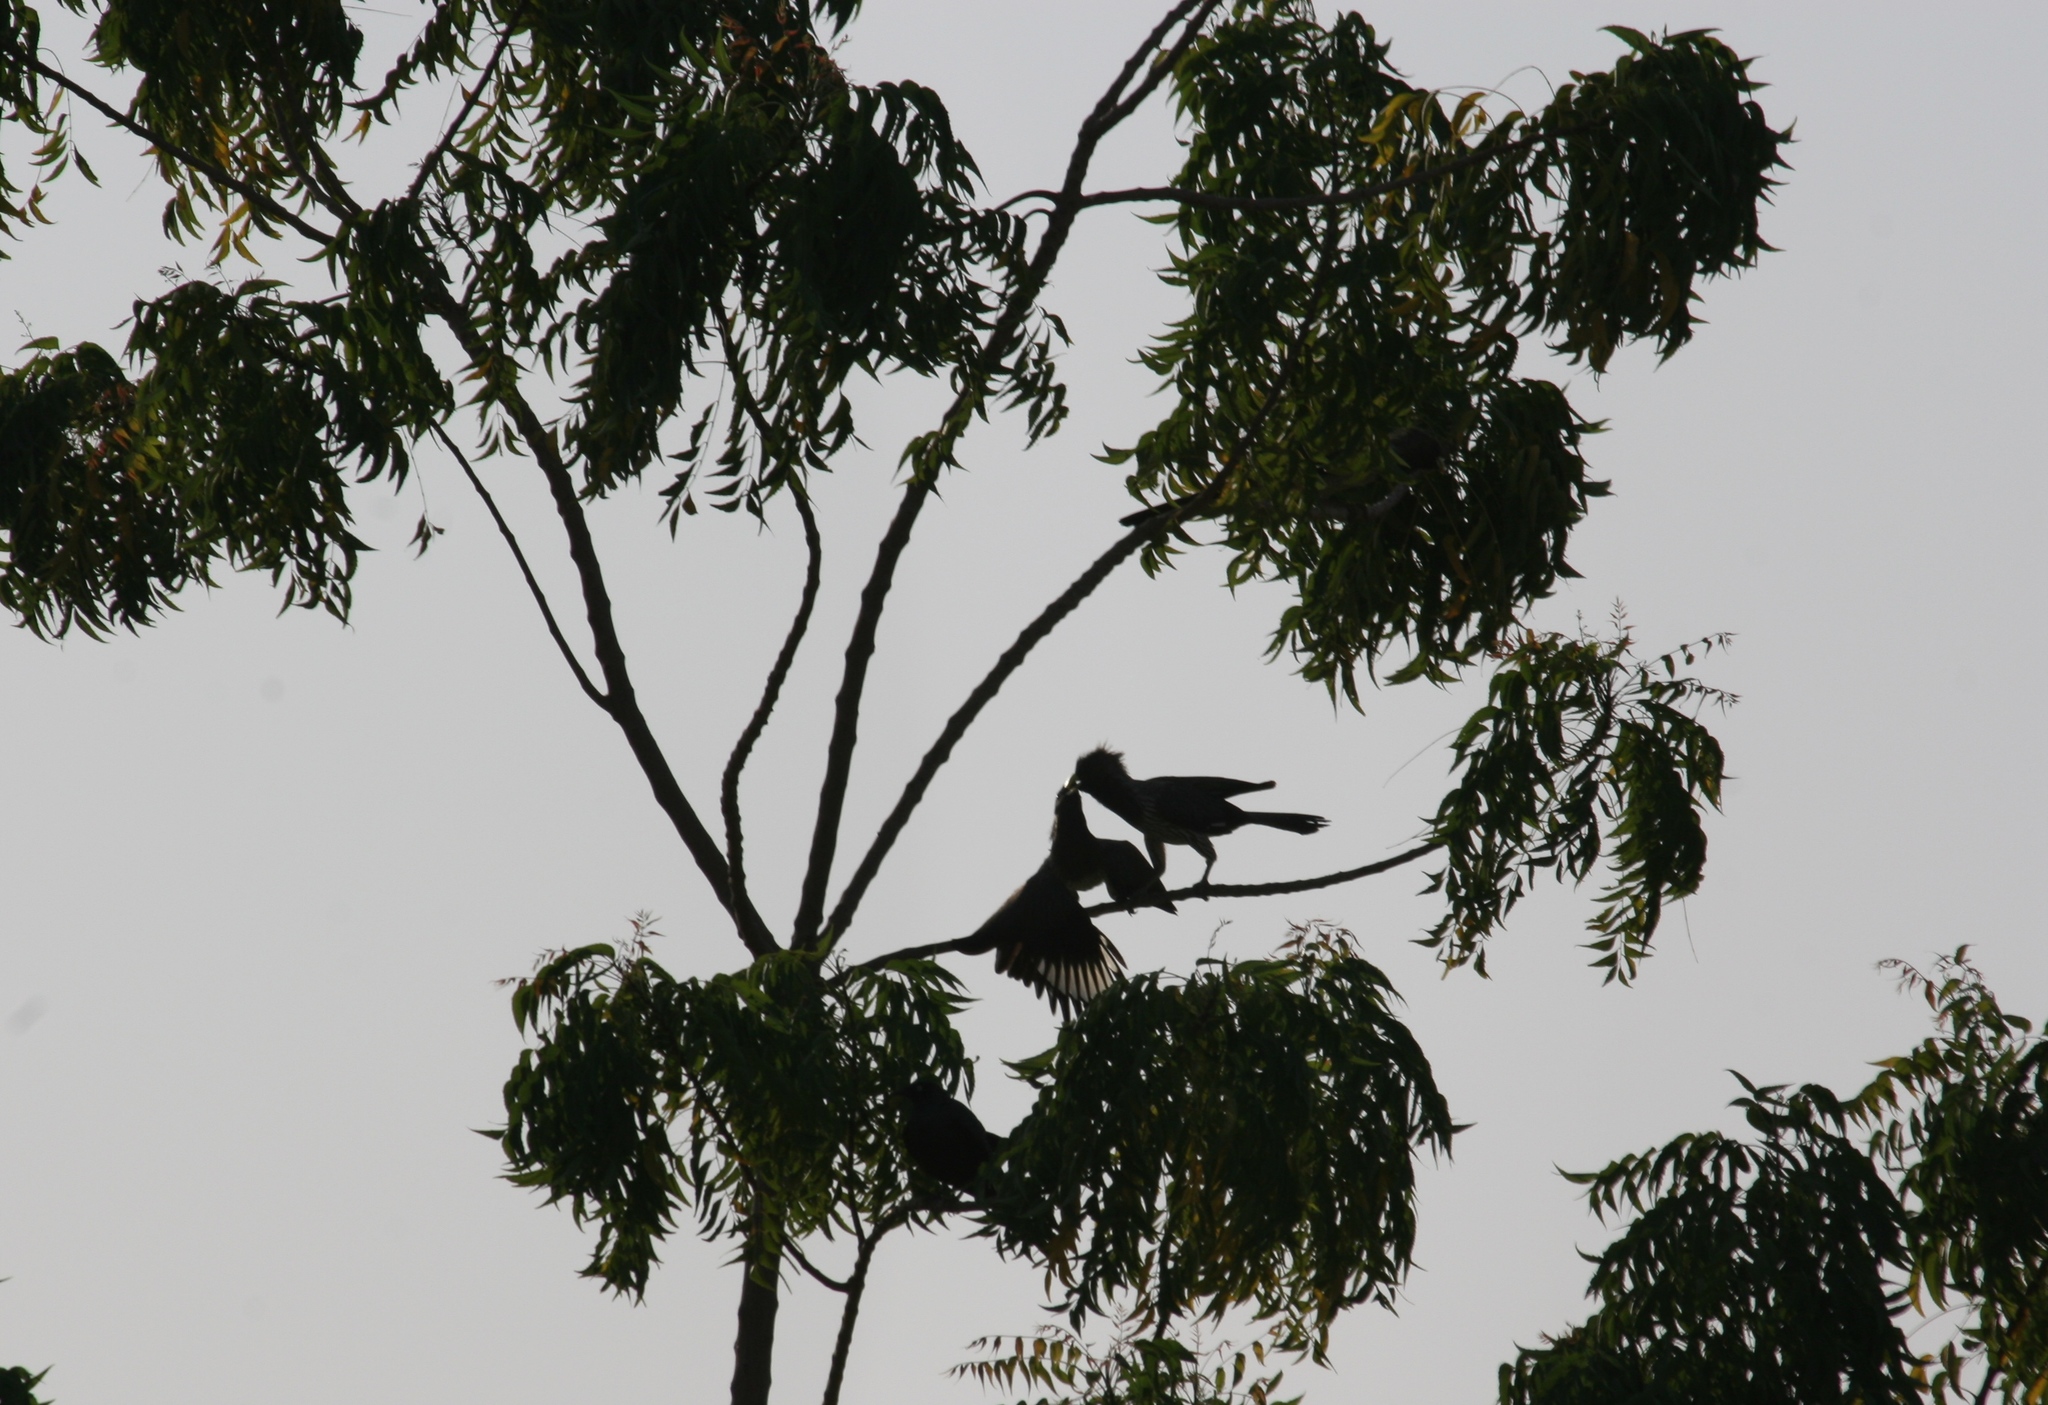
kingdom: Animalia
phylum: Chordata
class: Aves
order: Musophagiformes
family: Musophagidae
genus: Crinifer
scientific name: Crinifer piscator
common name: Western plantain-eater
